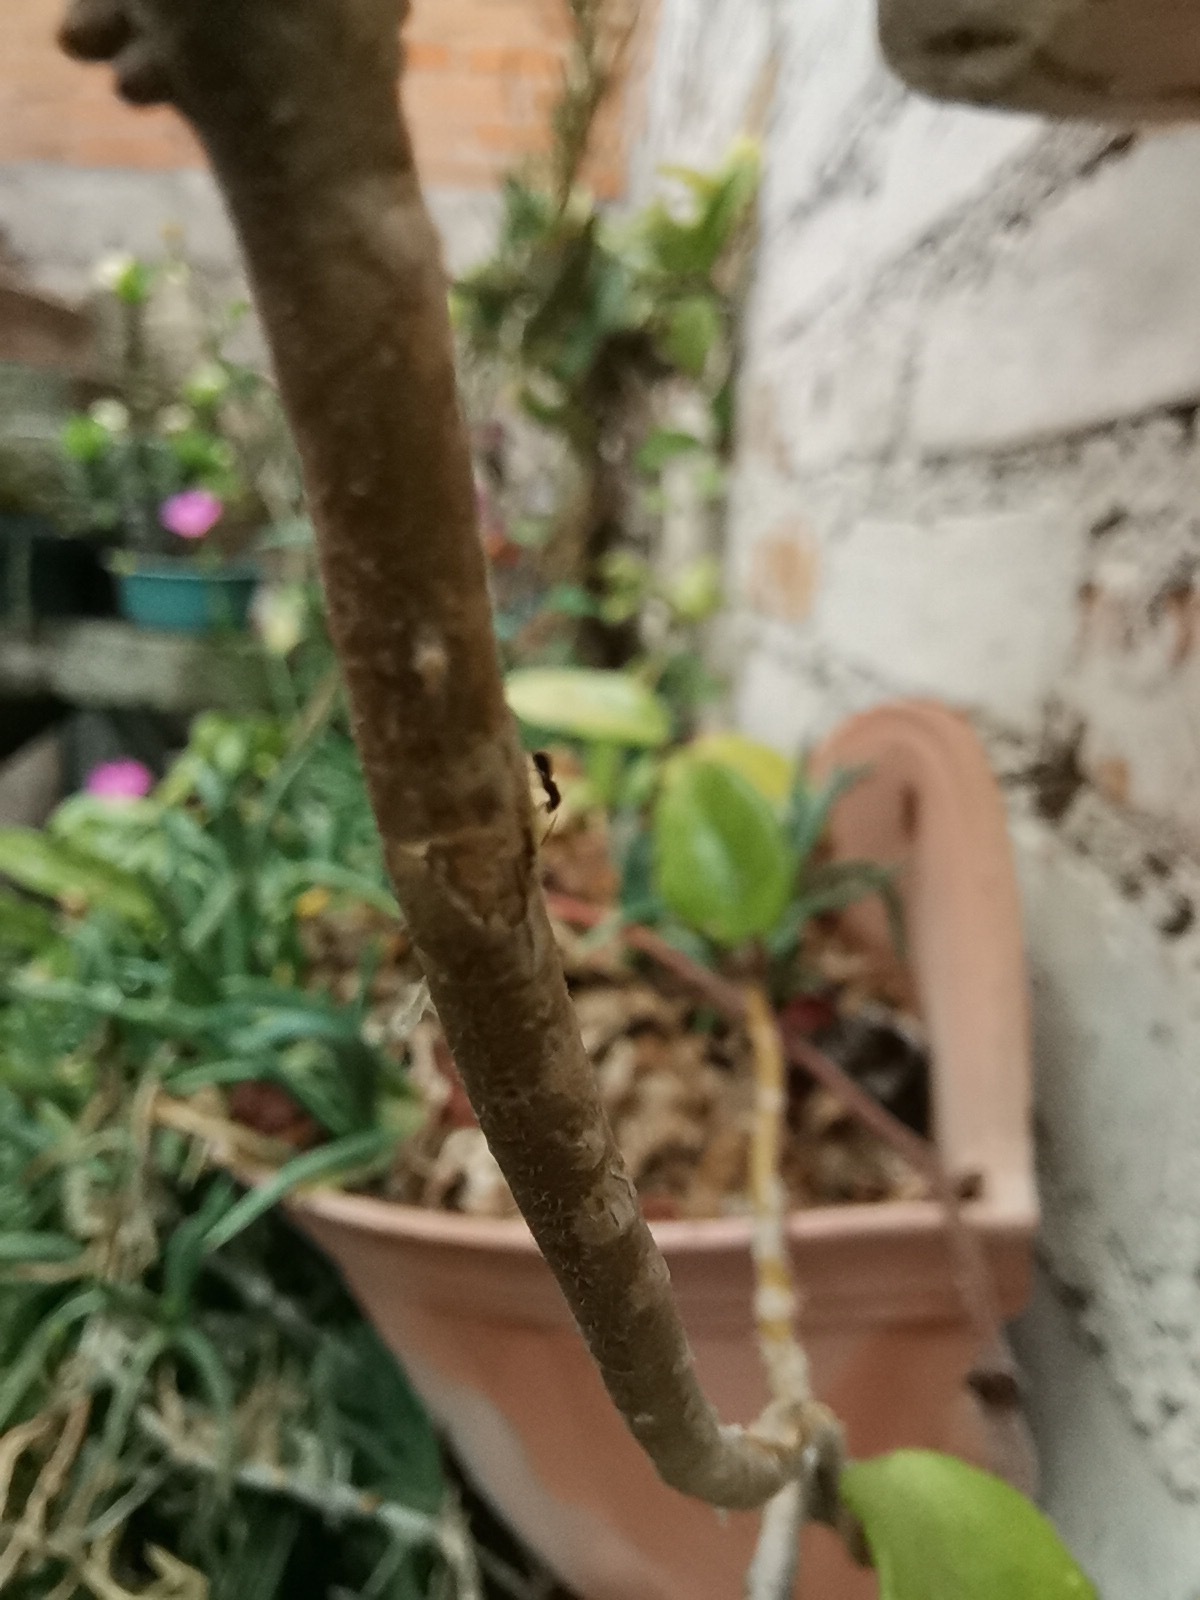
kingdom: Animalia
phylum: Arthropoda
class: Insecta
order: Hymenoptera
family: Formicidae
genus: Paratrechina
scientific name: Paratrechina longicornis
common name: Longhorned crazy ant
